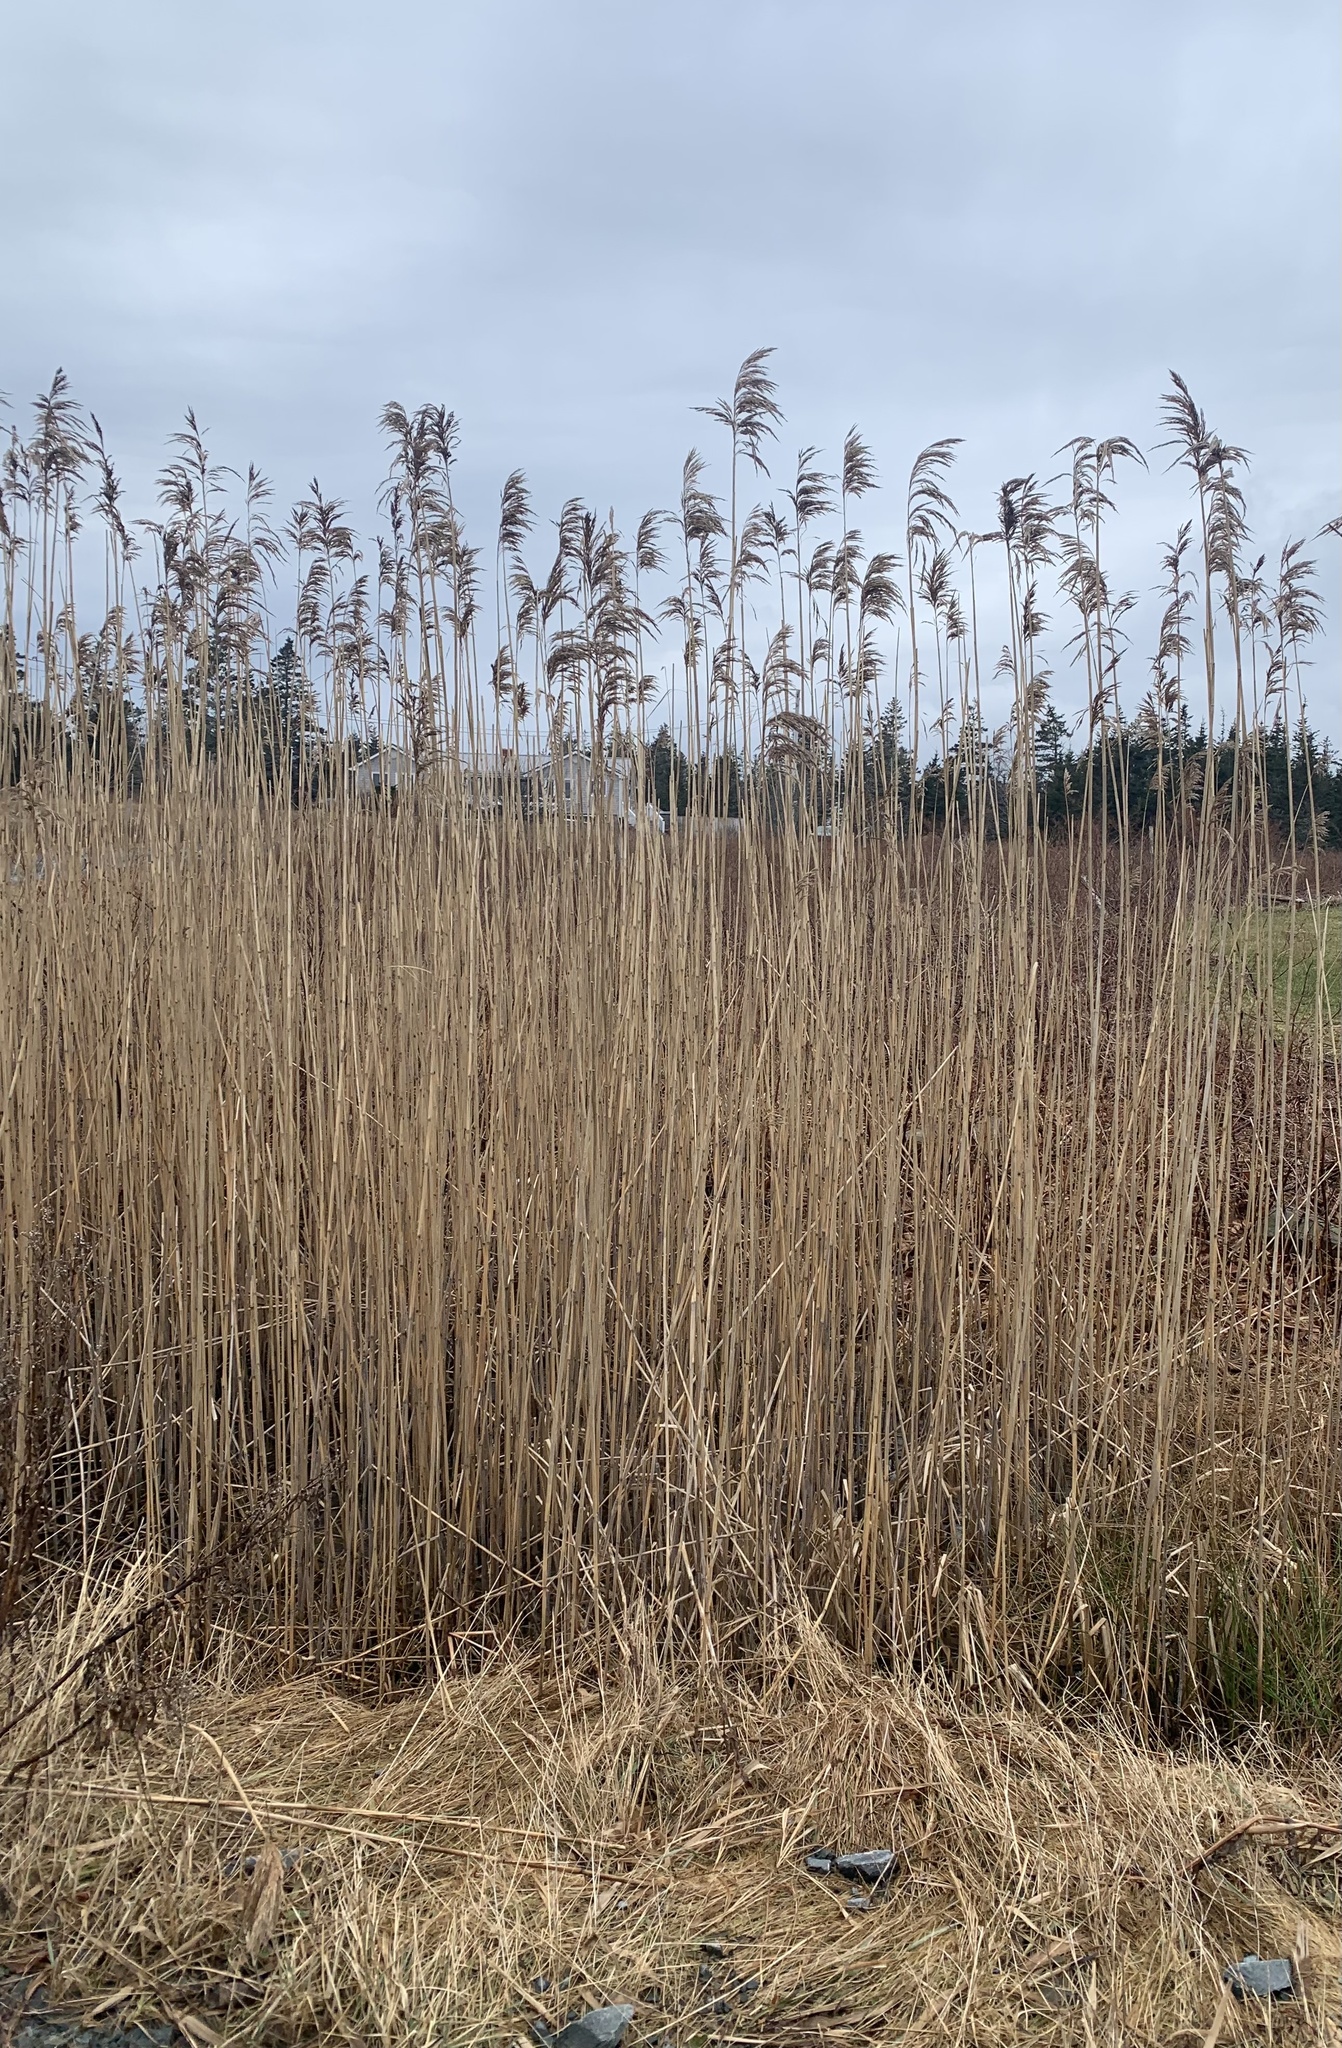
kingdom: Plantae
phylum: Tracheophyta
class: Liliopsida
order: Poales
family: Poaceae
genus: Phragmites
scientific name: Phragmites australis
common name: Common reed
